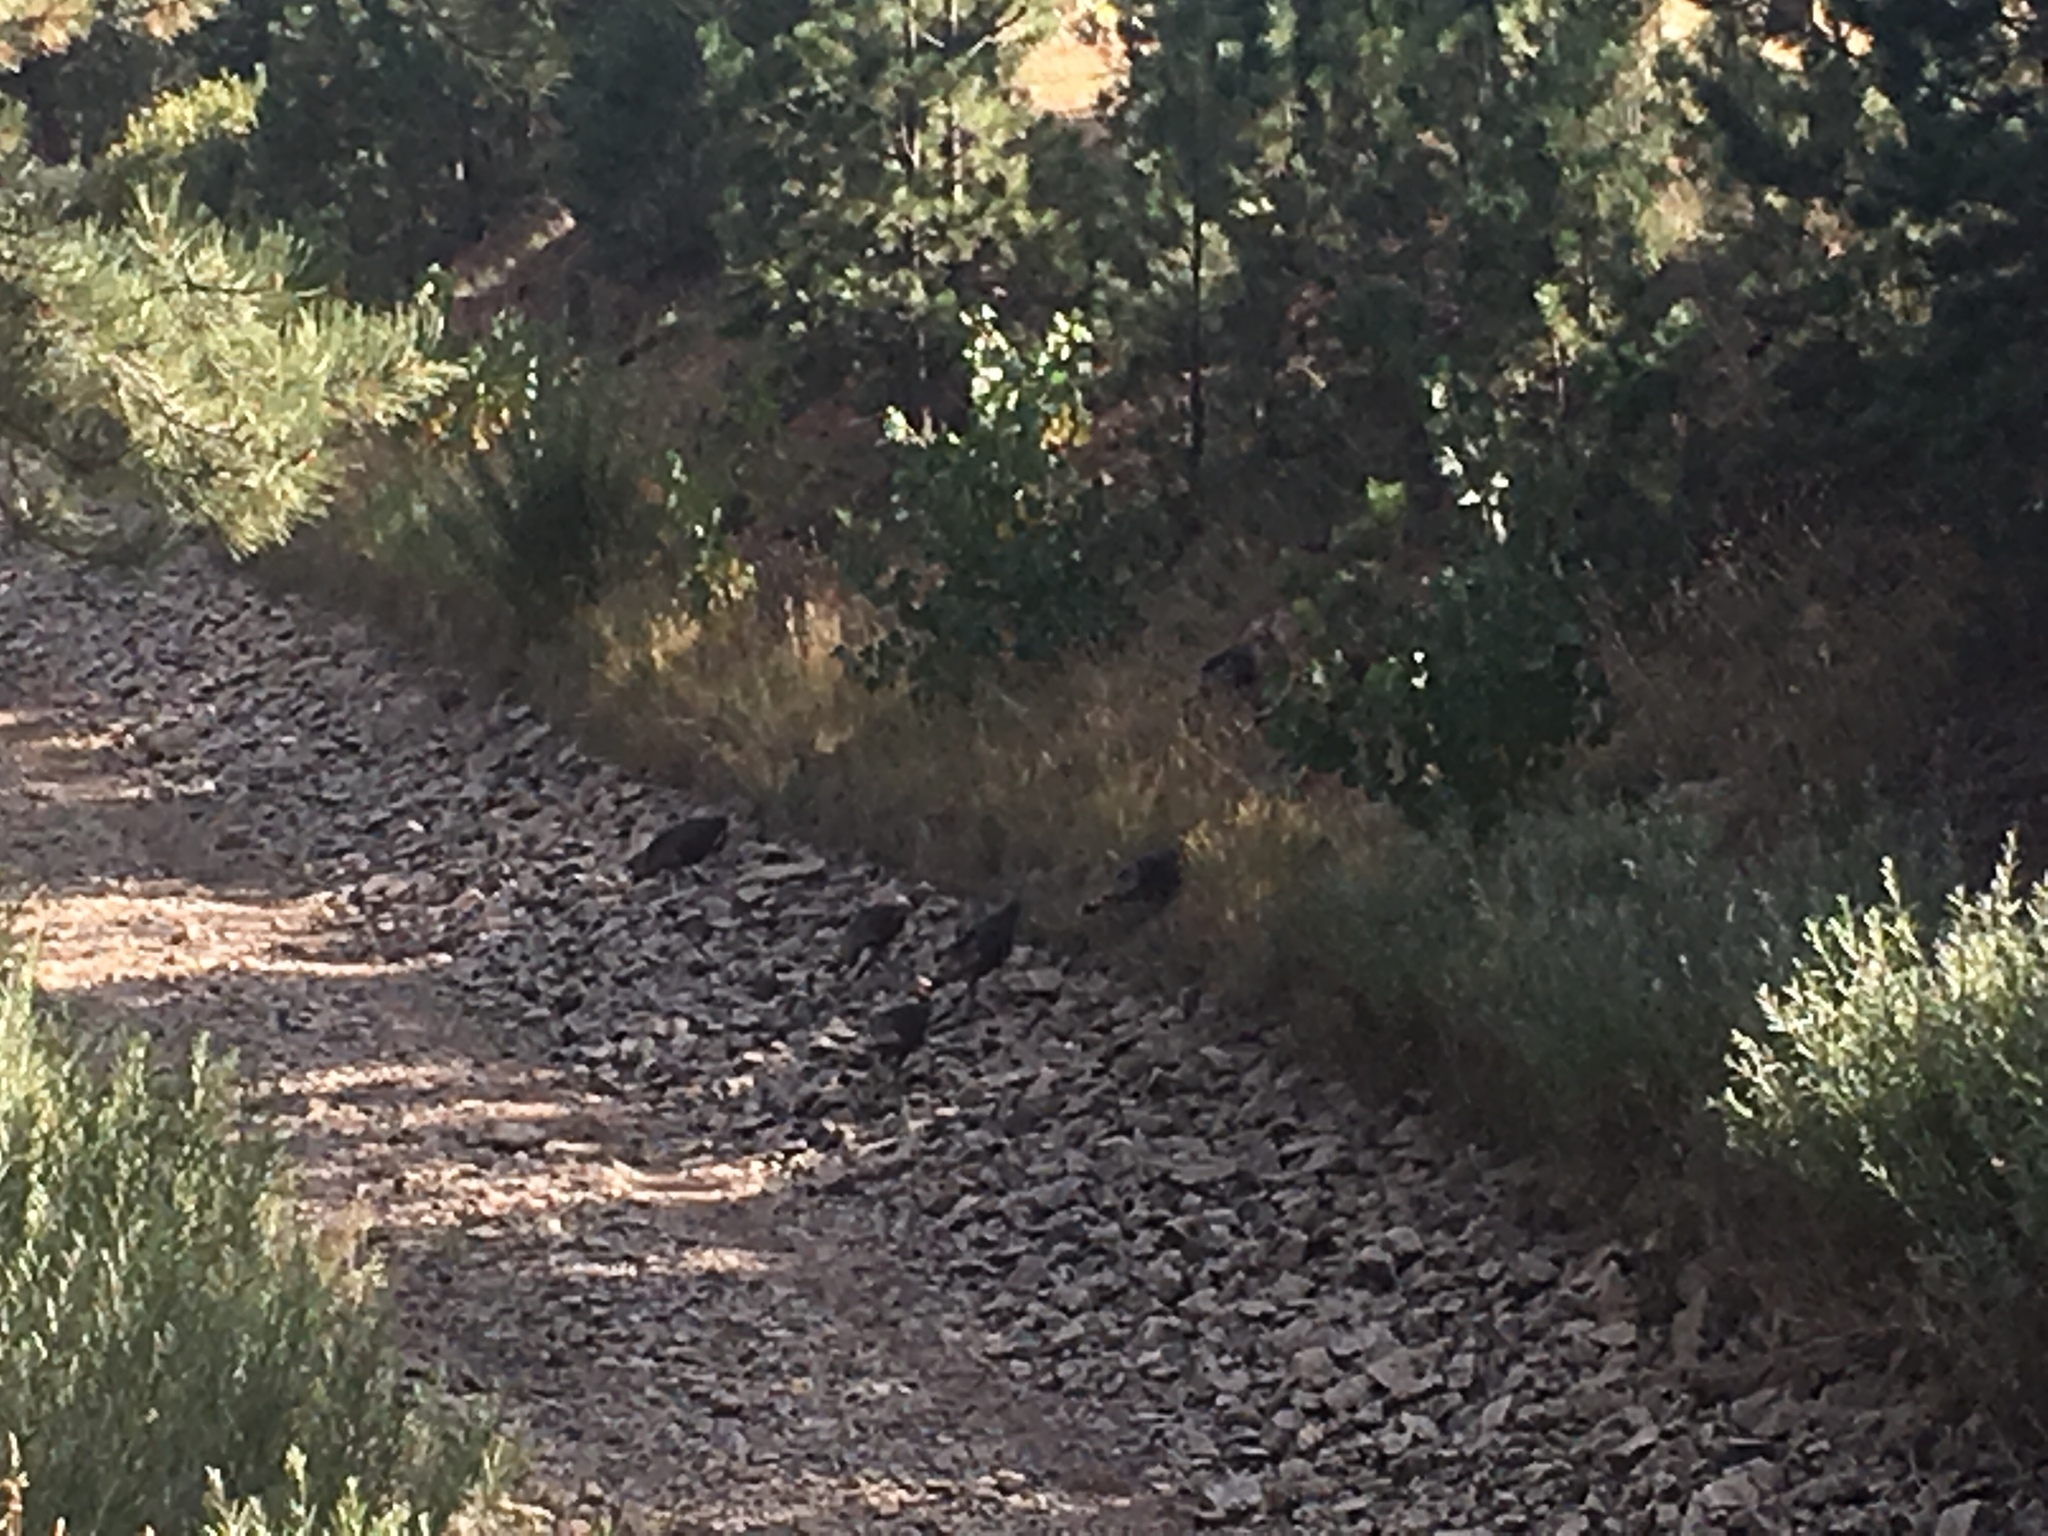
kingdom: Animalia
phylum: Chordata
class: Aves
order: Galliformes
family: Phasianidae
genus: Meleagris
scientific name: Meleagris gallopavo
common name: Wild turkey
